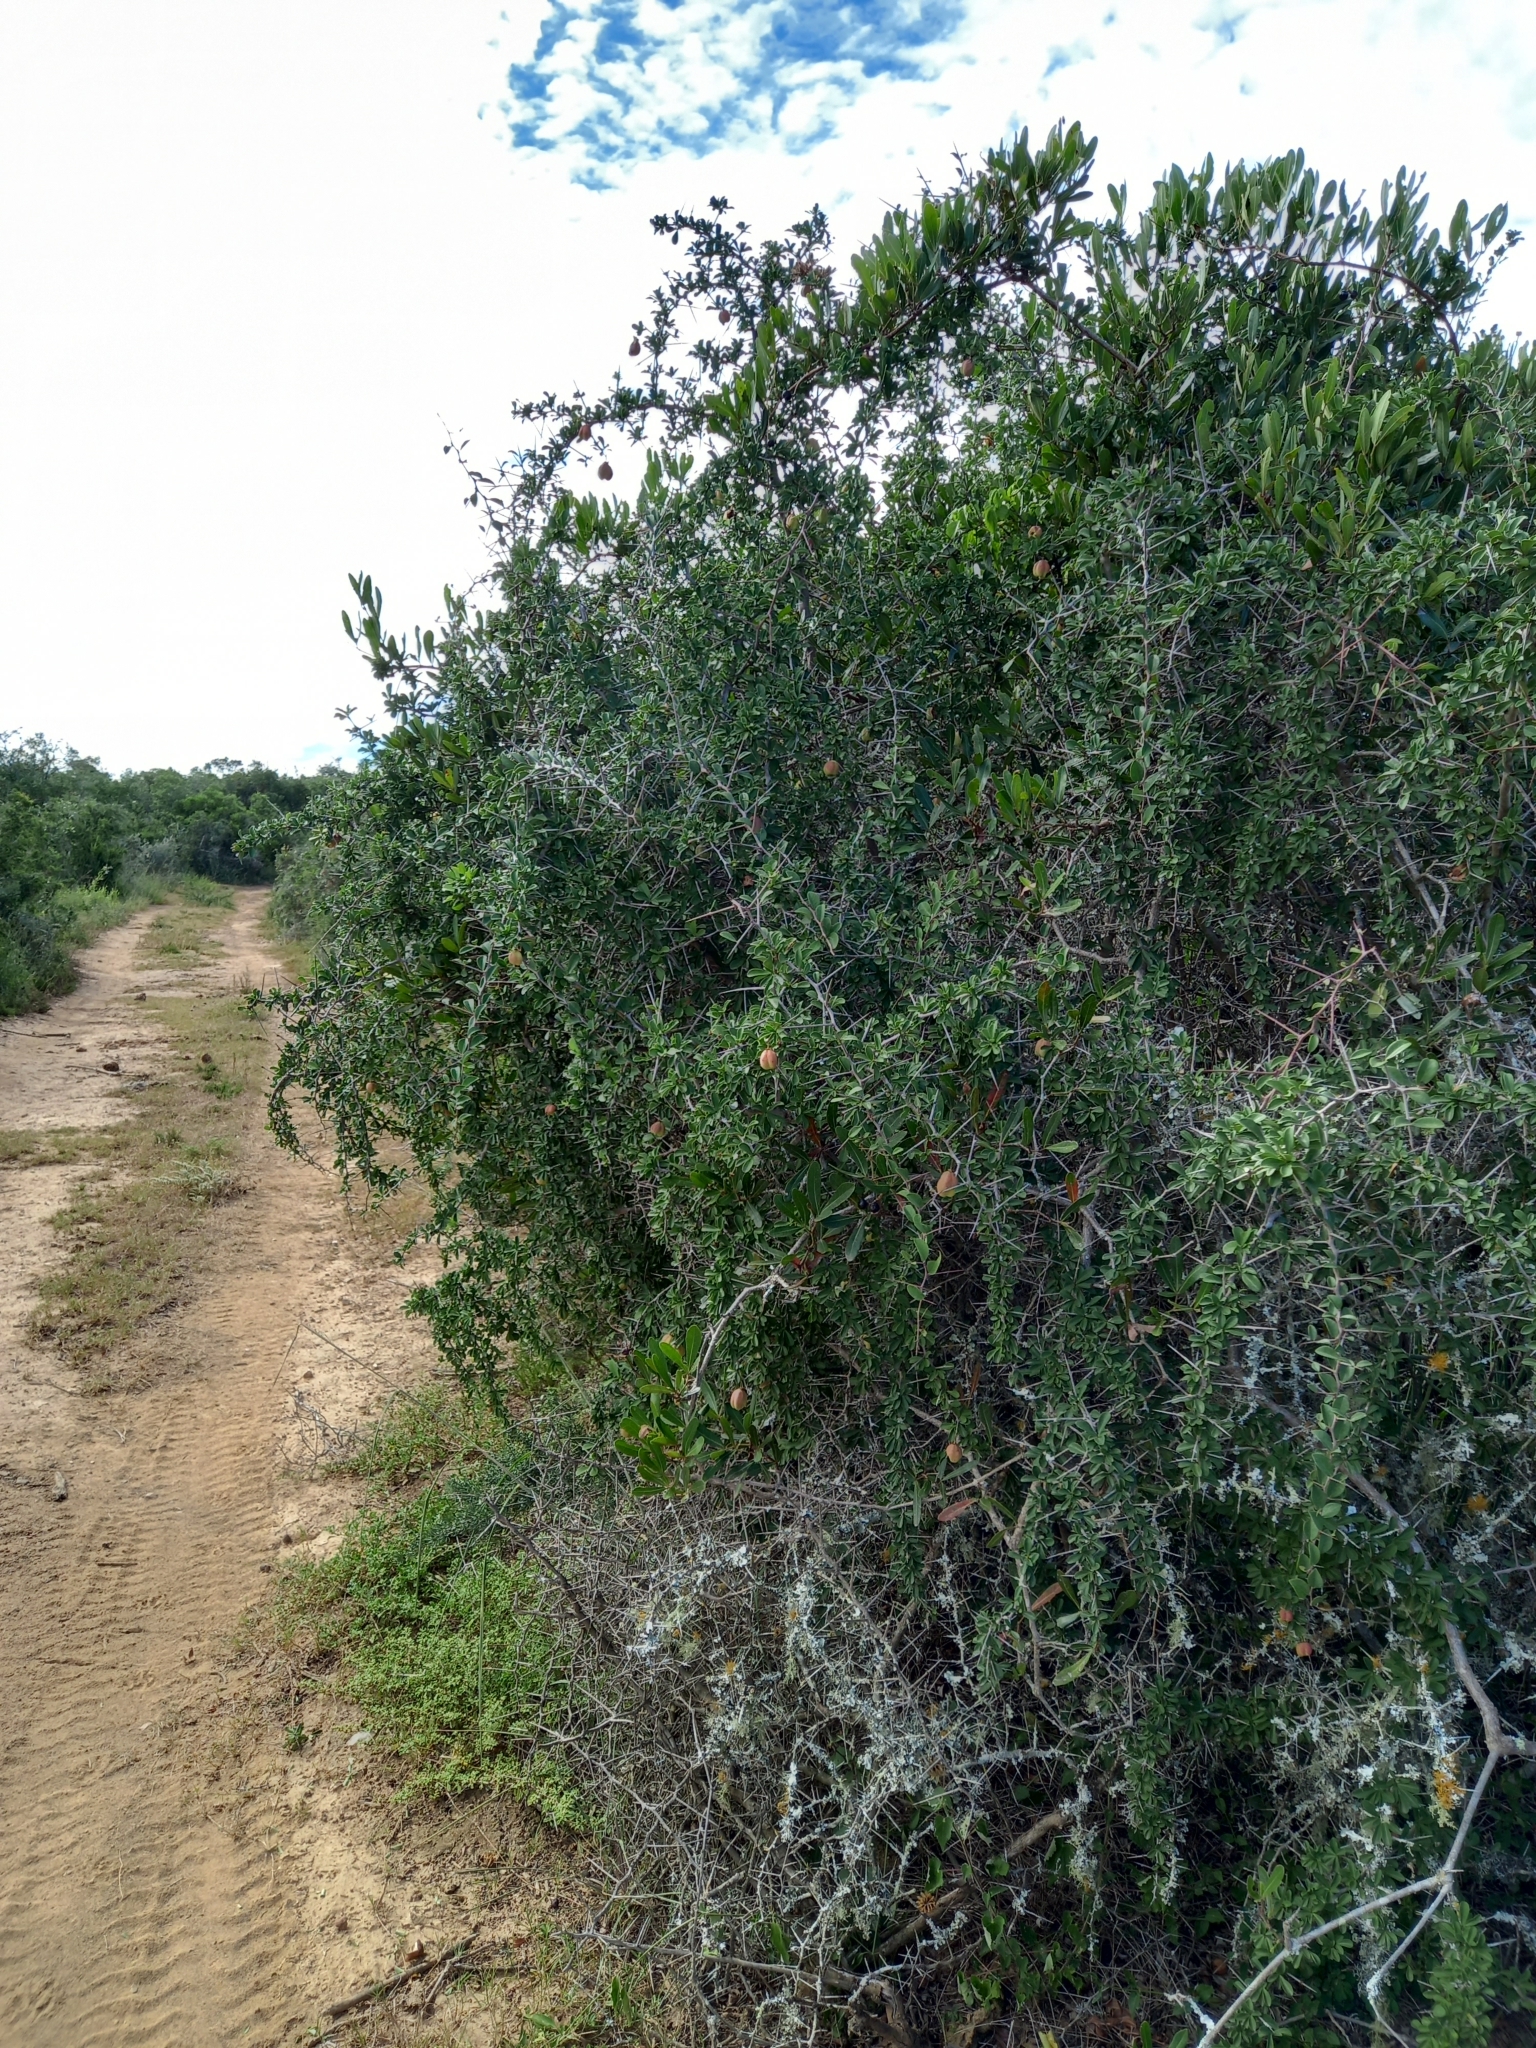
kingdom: Plantae
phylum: Tracheophyta
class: Magnoliopsida
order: Celastrales
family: Celastraceae
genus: Putterlickia
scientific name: Putterlickia pyracantha
